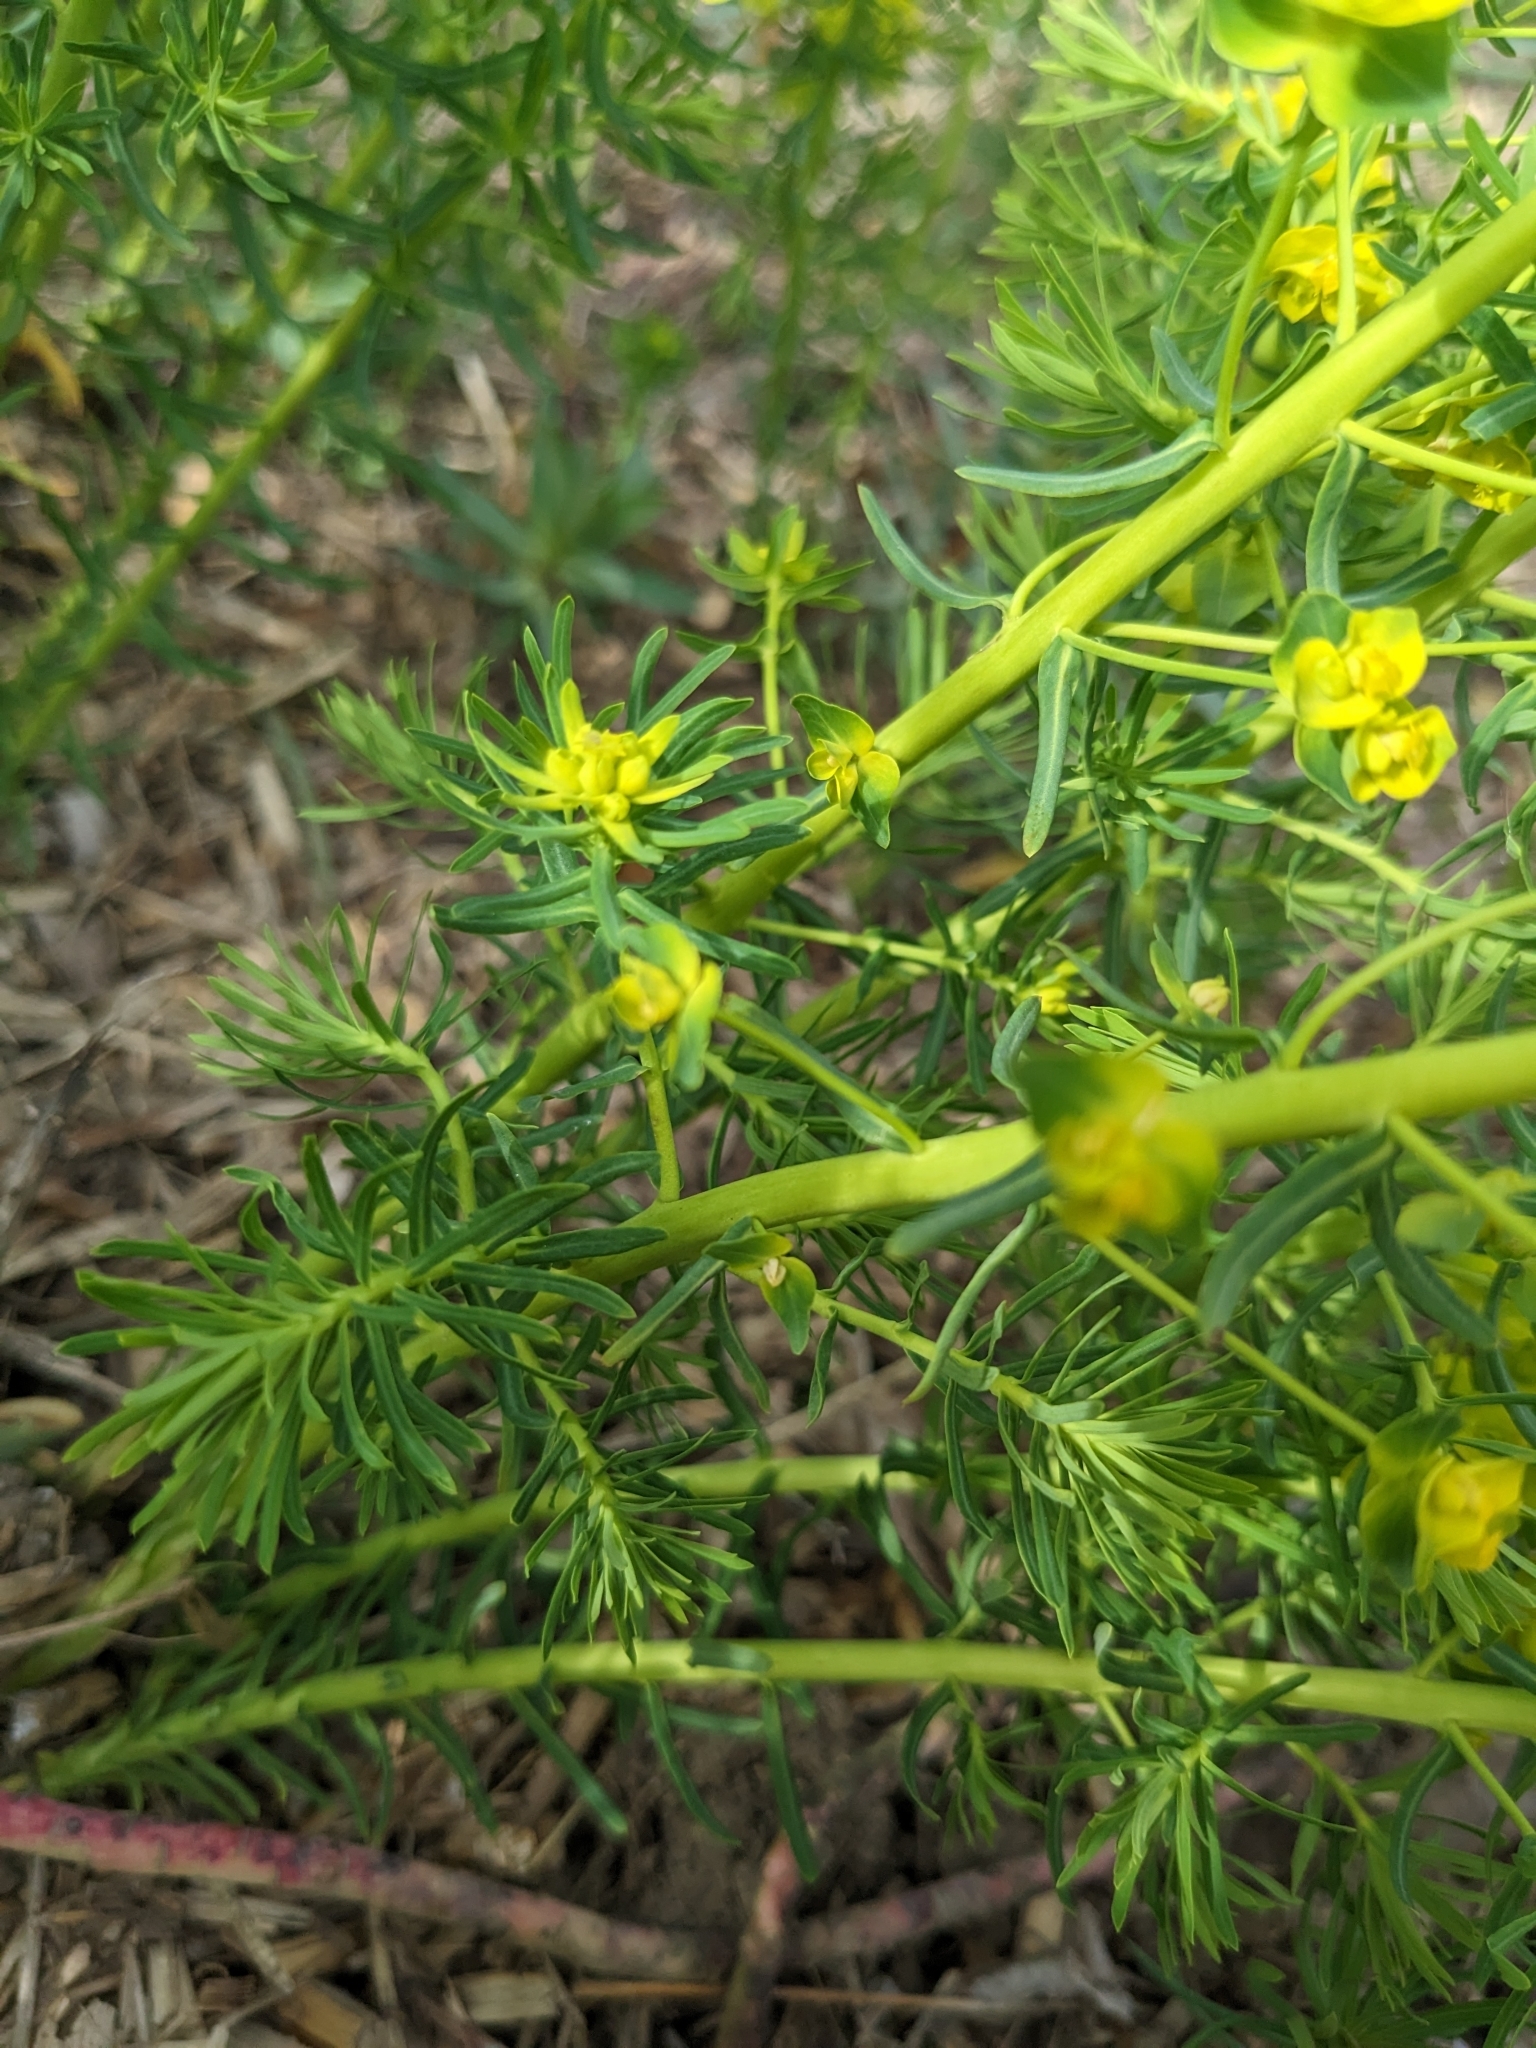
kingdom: Plantae
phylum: Tracheophyta
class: Magnoliopsida
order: Malpighiales
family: Euphorbiaceae
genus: Euphorbia
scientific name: Euphorbia cyparissias
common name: Cypress spurge
